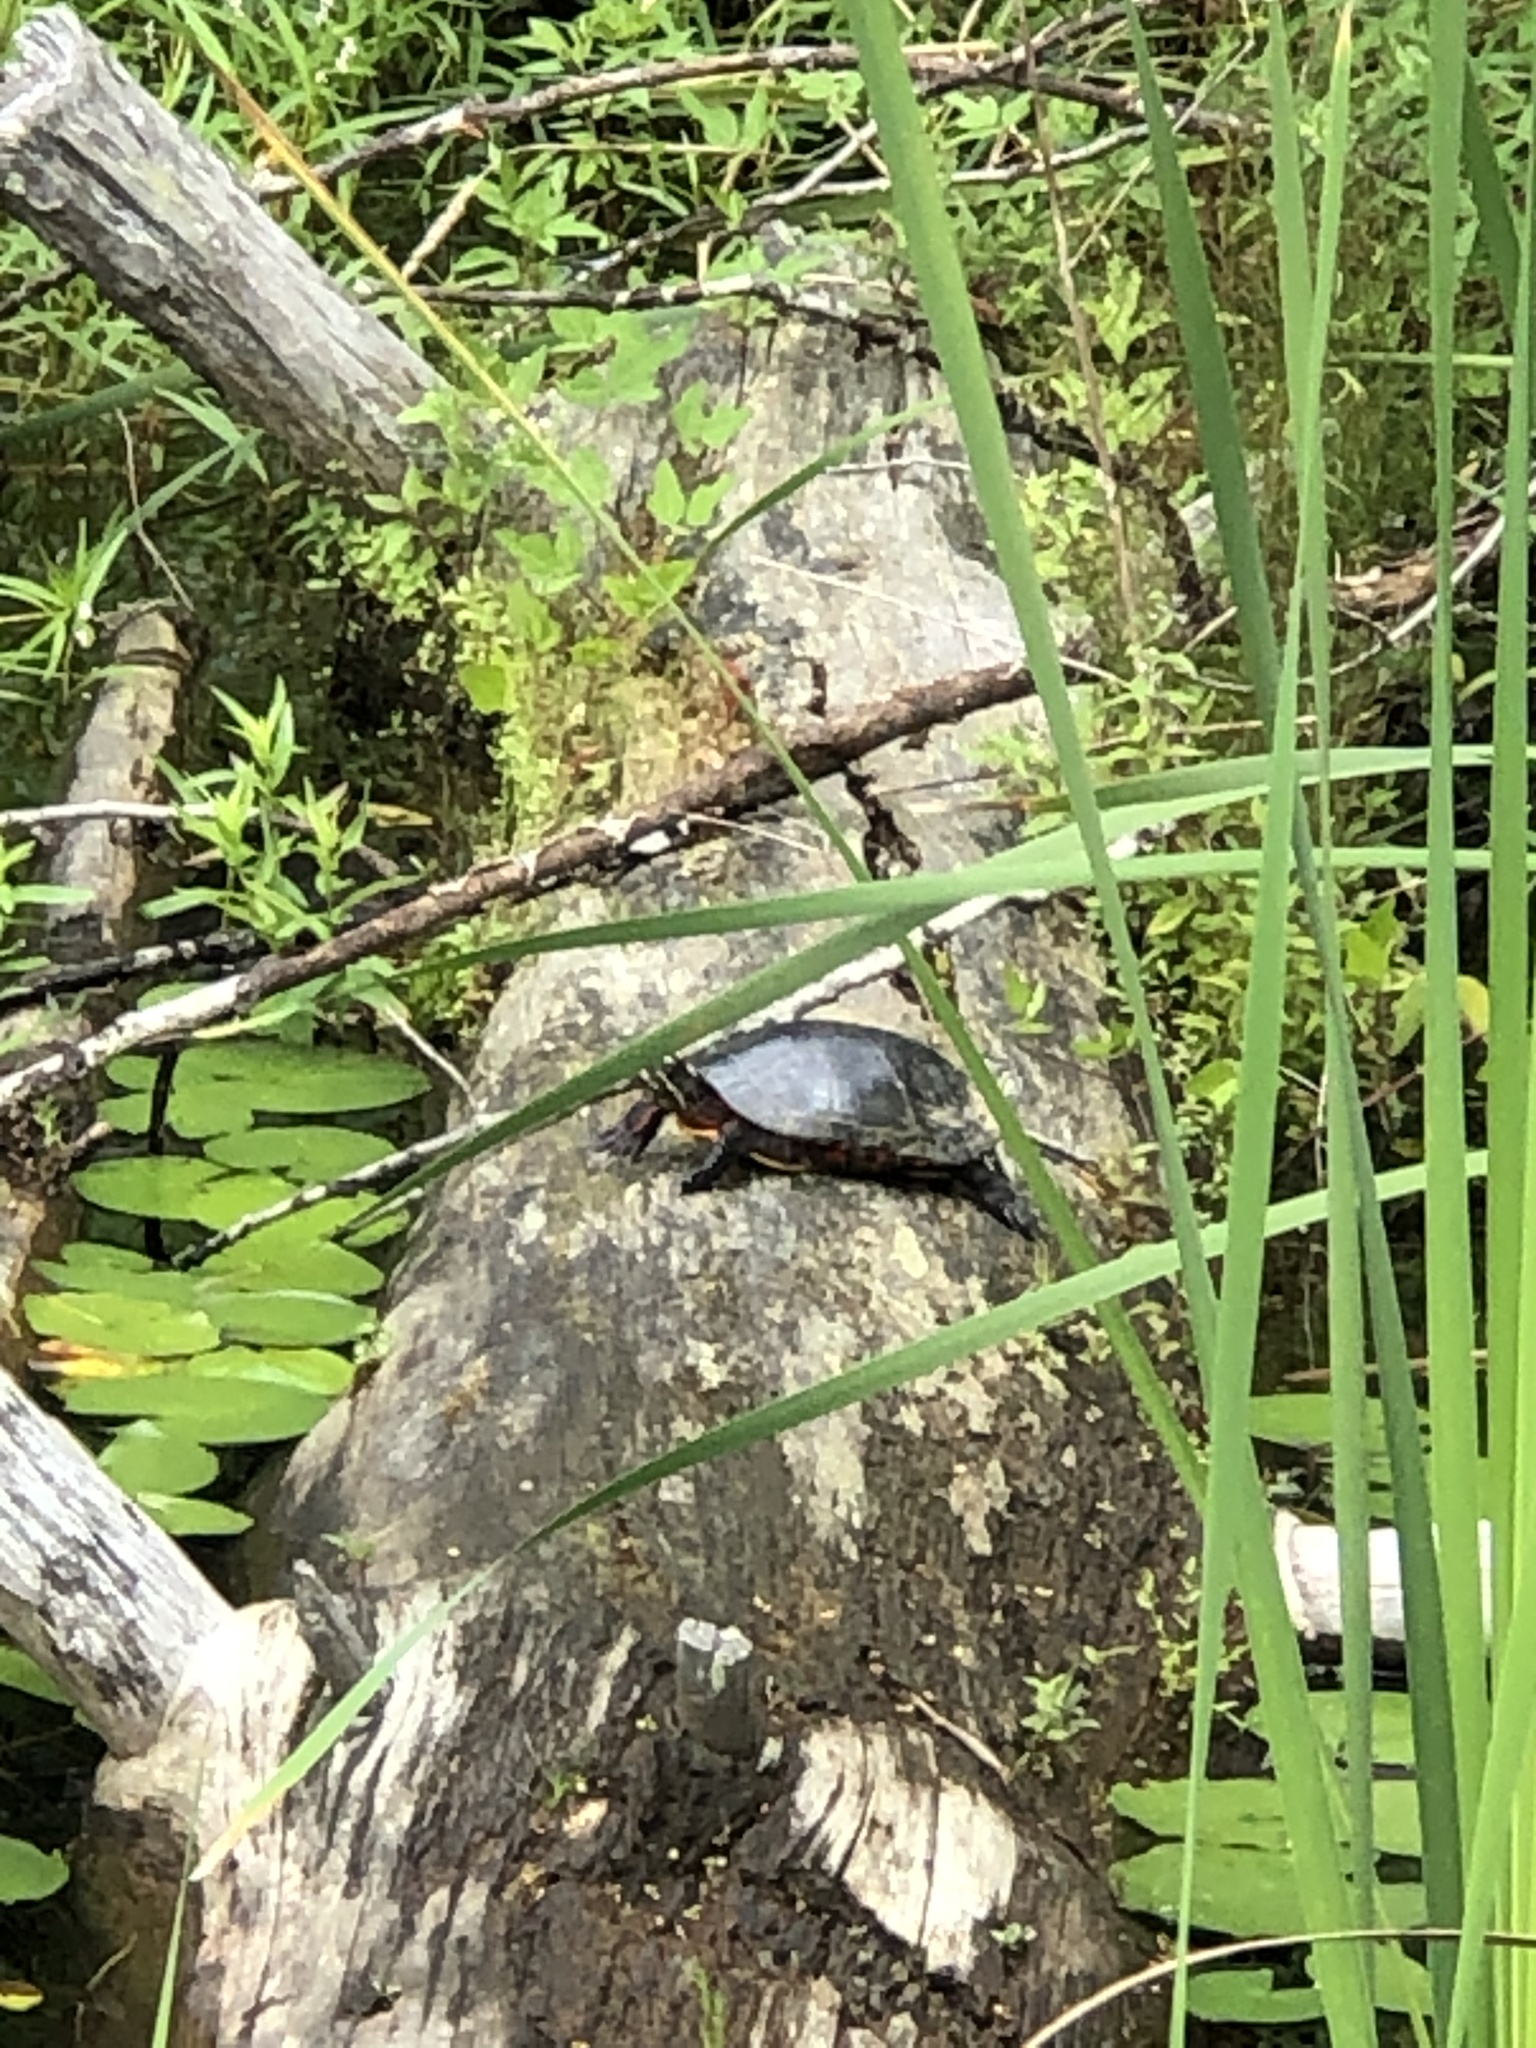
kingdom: Animalia
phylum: Chordata
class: Testudines
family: Emydidae
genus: Chrysemys
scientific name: Chrysemys picta
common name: Painted turtle
